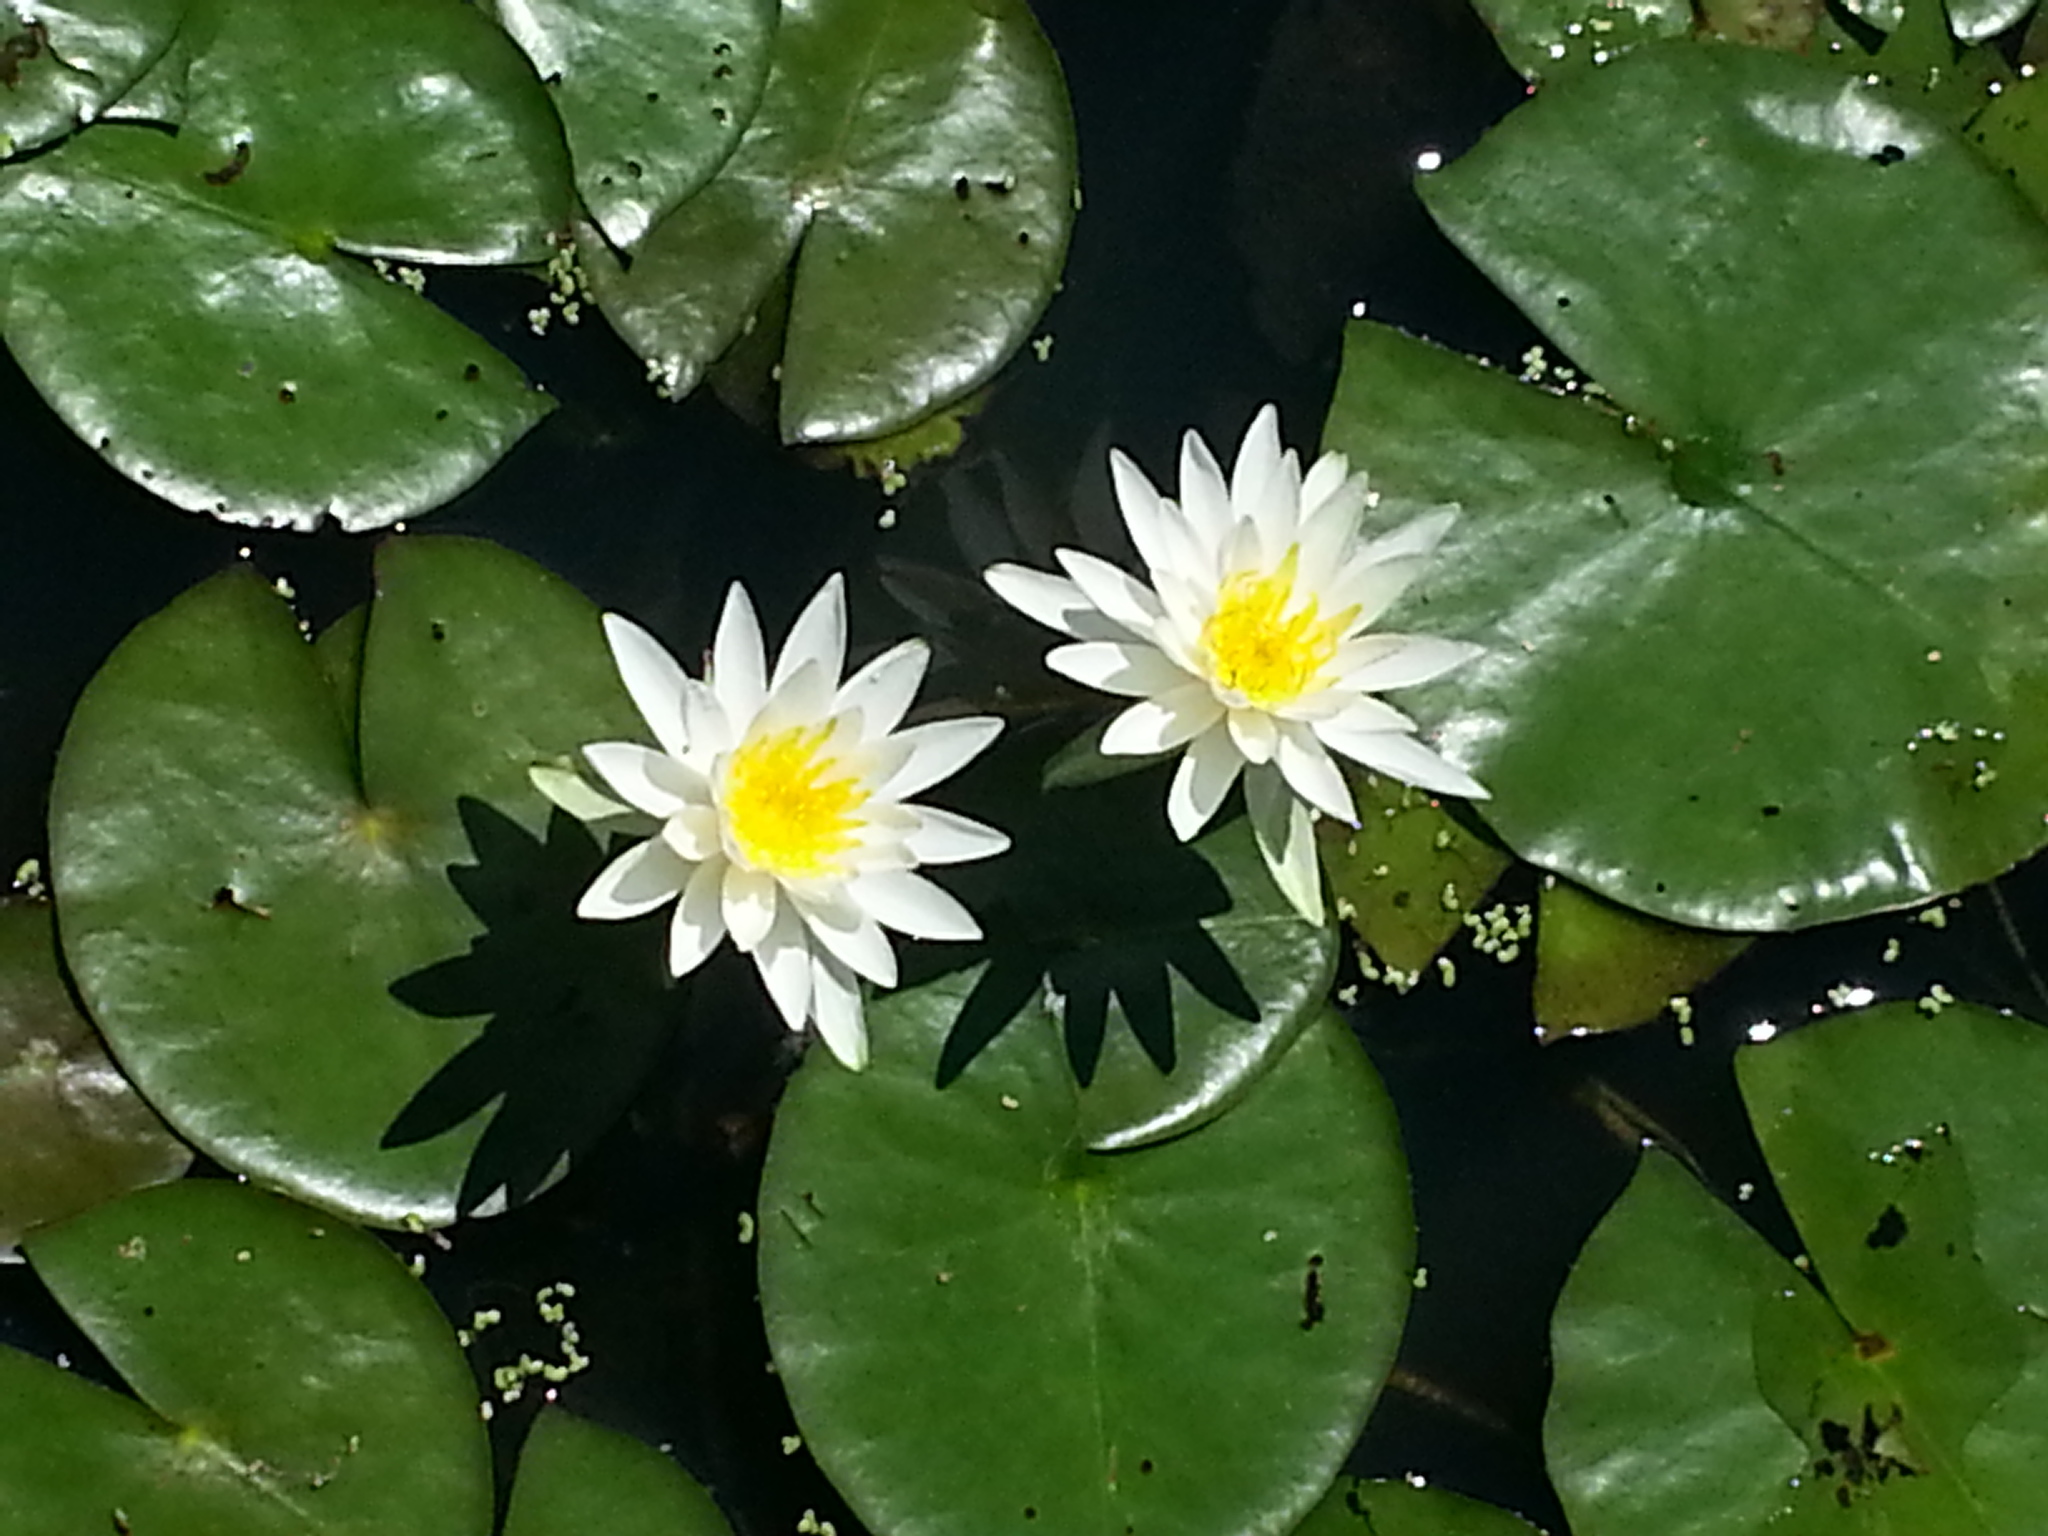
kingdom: Plantae
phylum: Tracheophyta
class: Magnoliopsida
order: Nymphaeales
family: Nymphaeaceae
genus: Nymphaea
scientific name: Nymphaea odorata
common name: Fragrant water-lily
